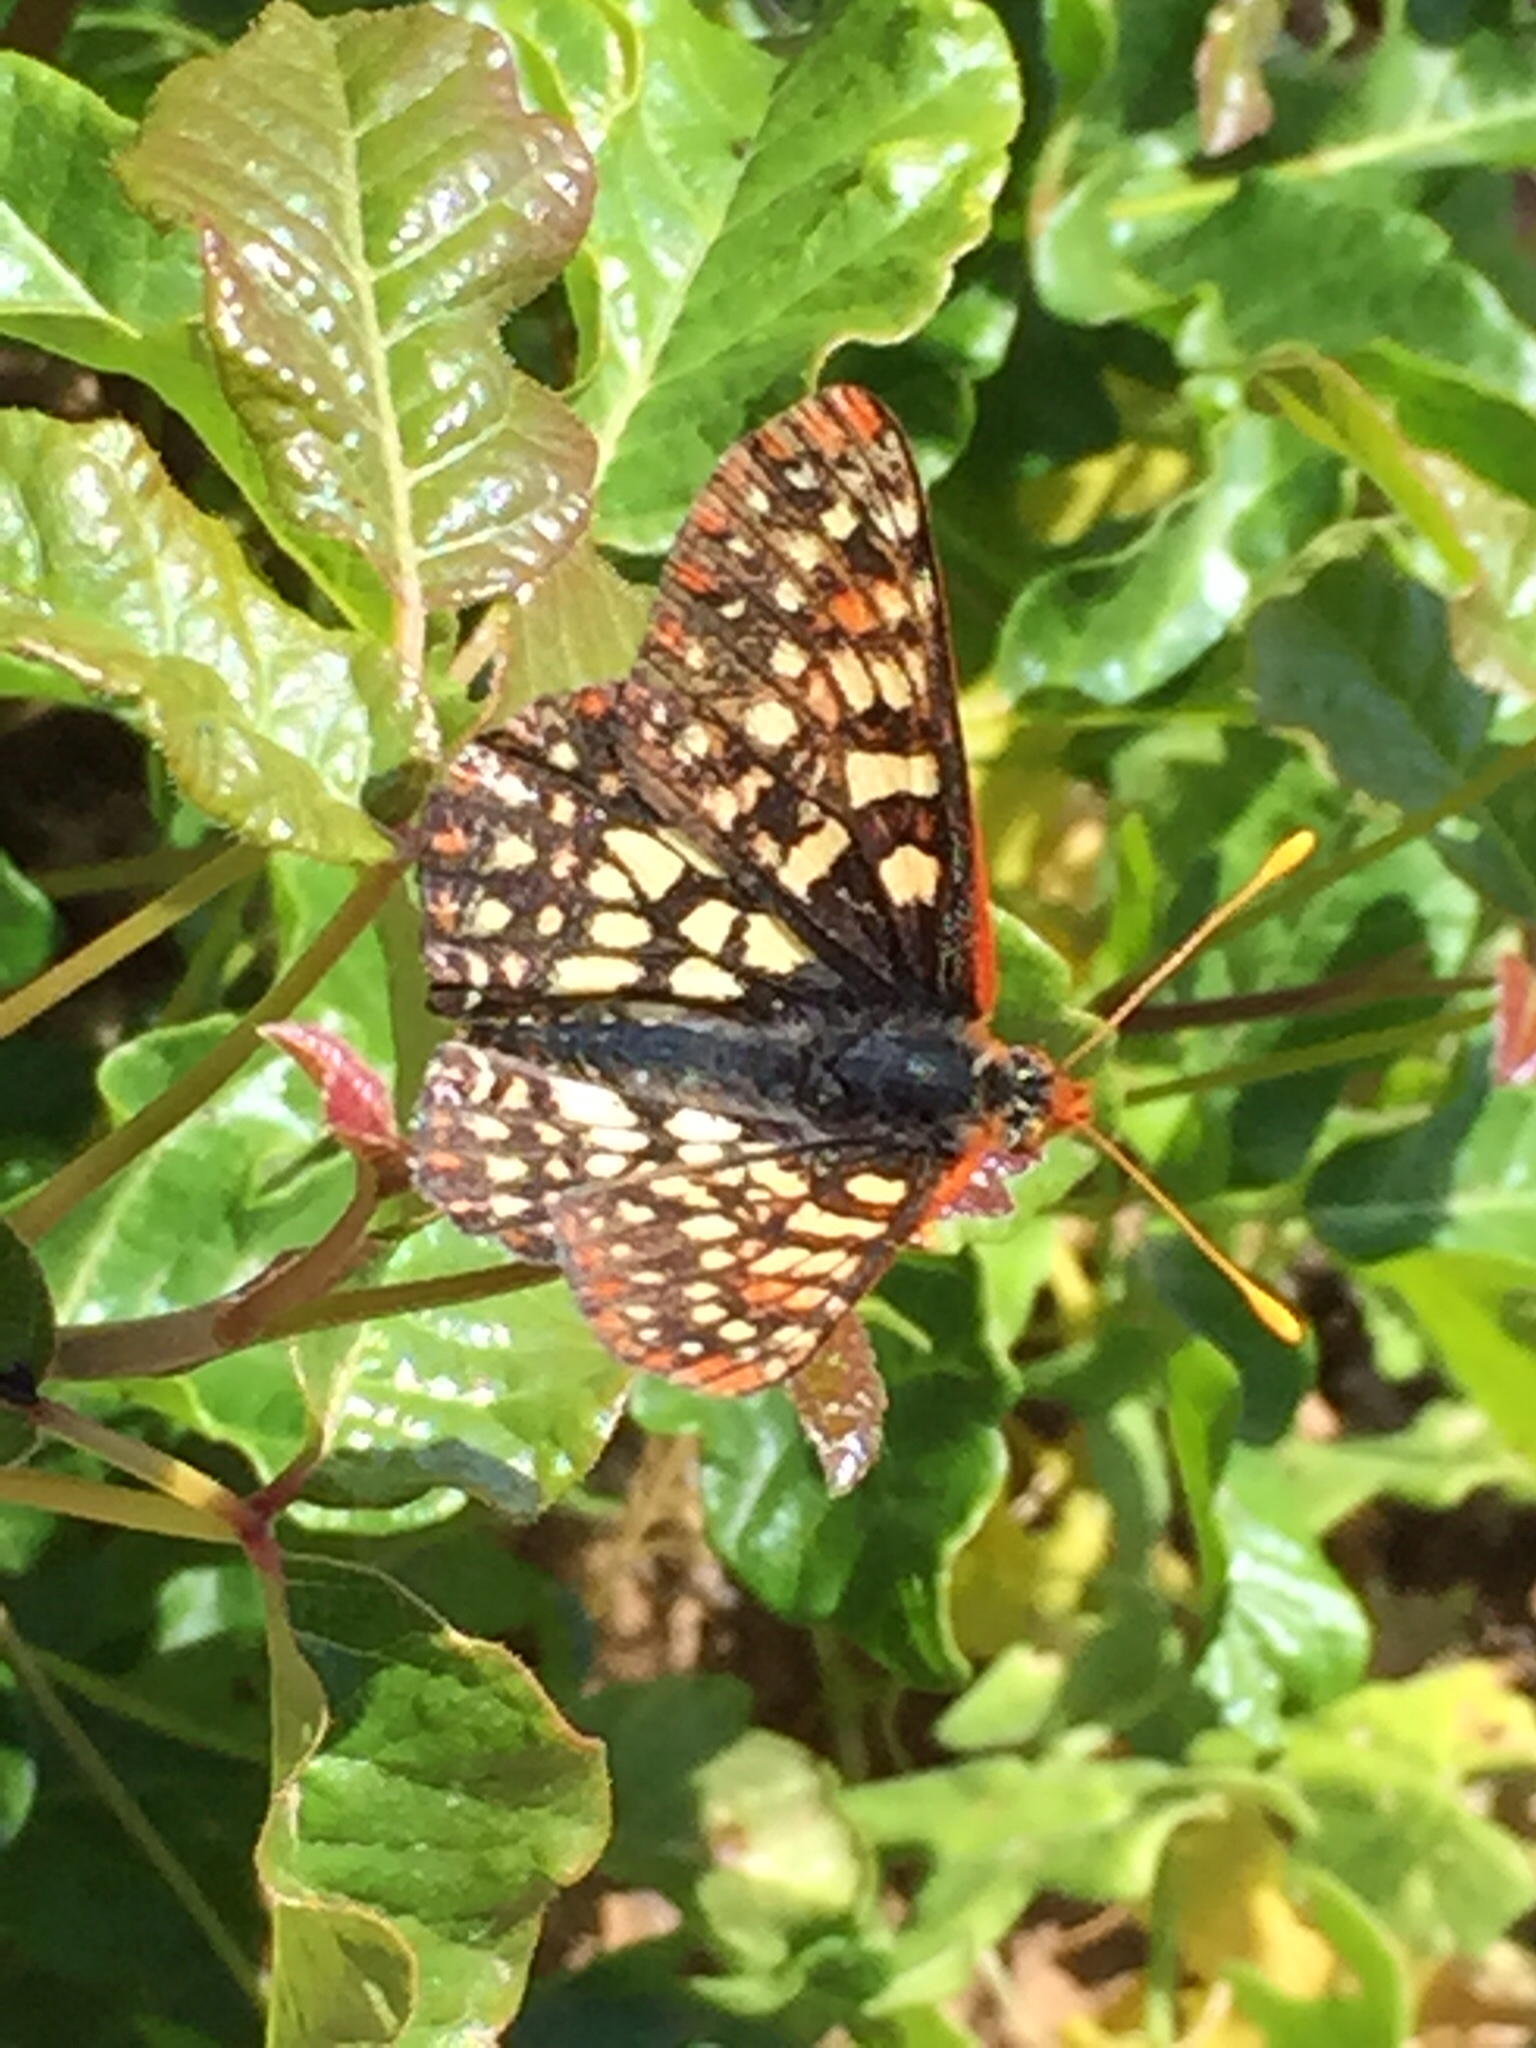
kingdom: Animalia
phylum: Arthropoda
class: Insecta
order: Lepidoptera
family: Nymphalidae
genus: Occidryas
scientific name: Occidryas chalcedona
